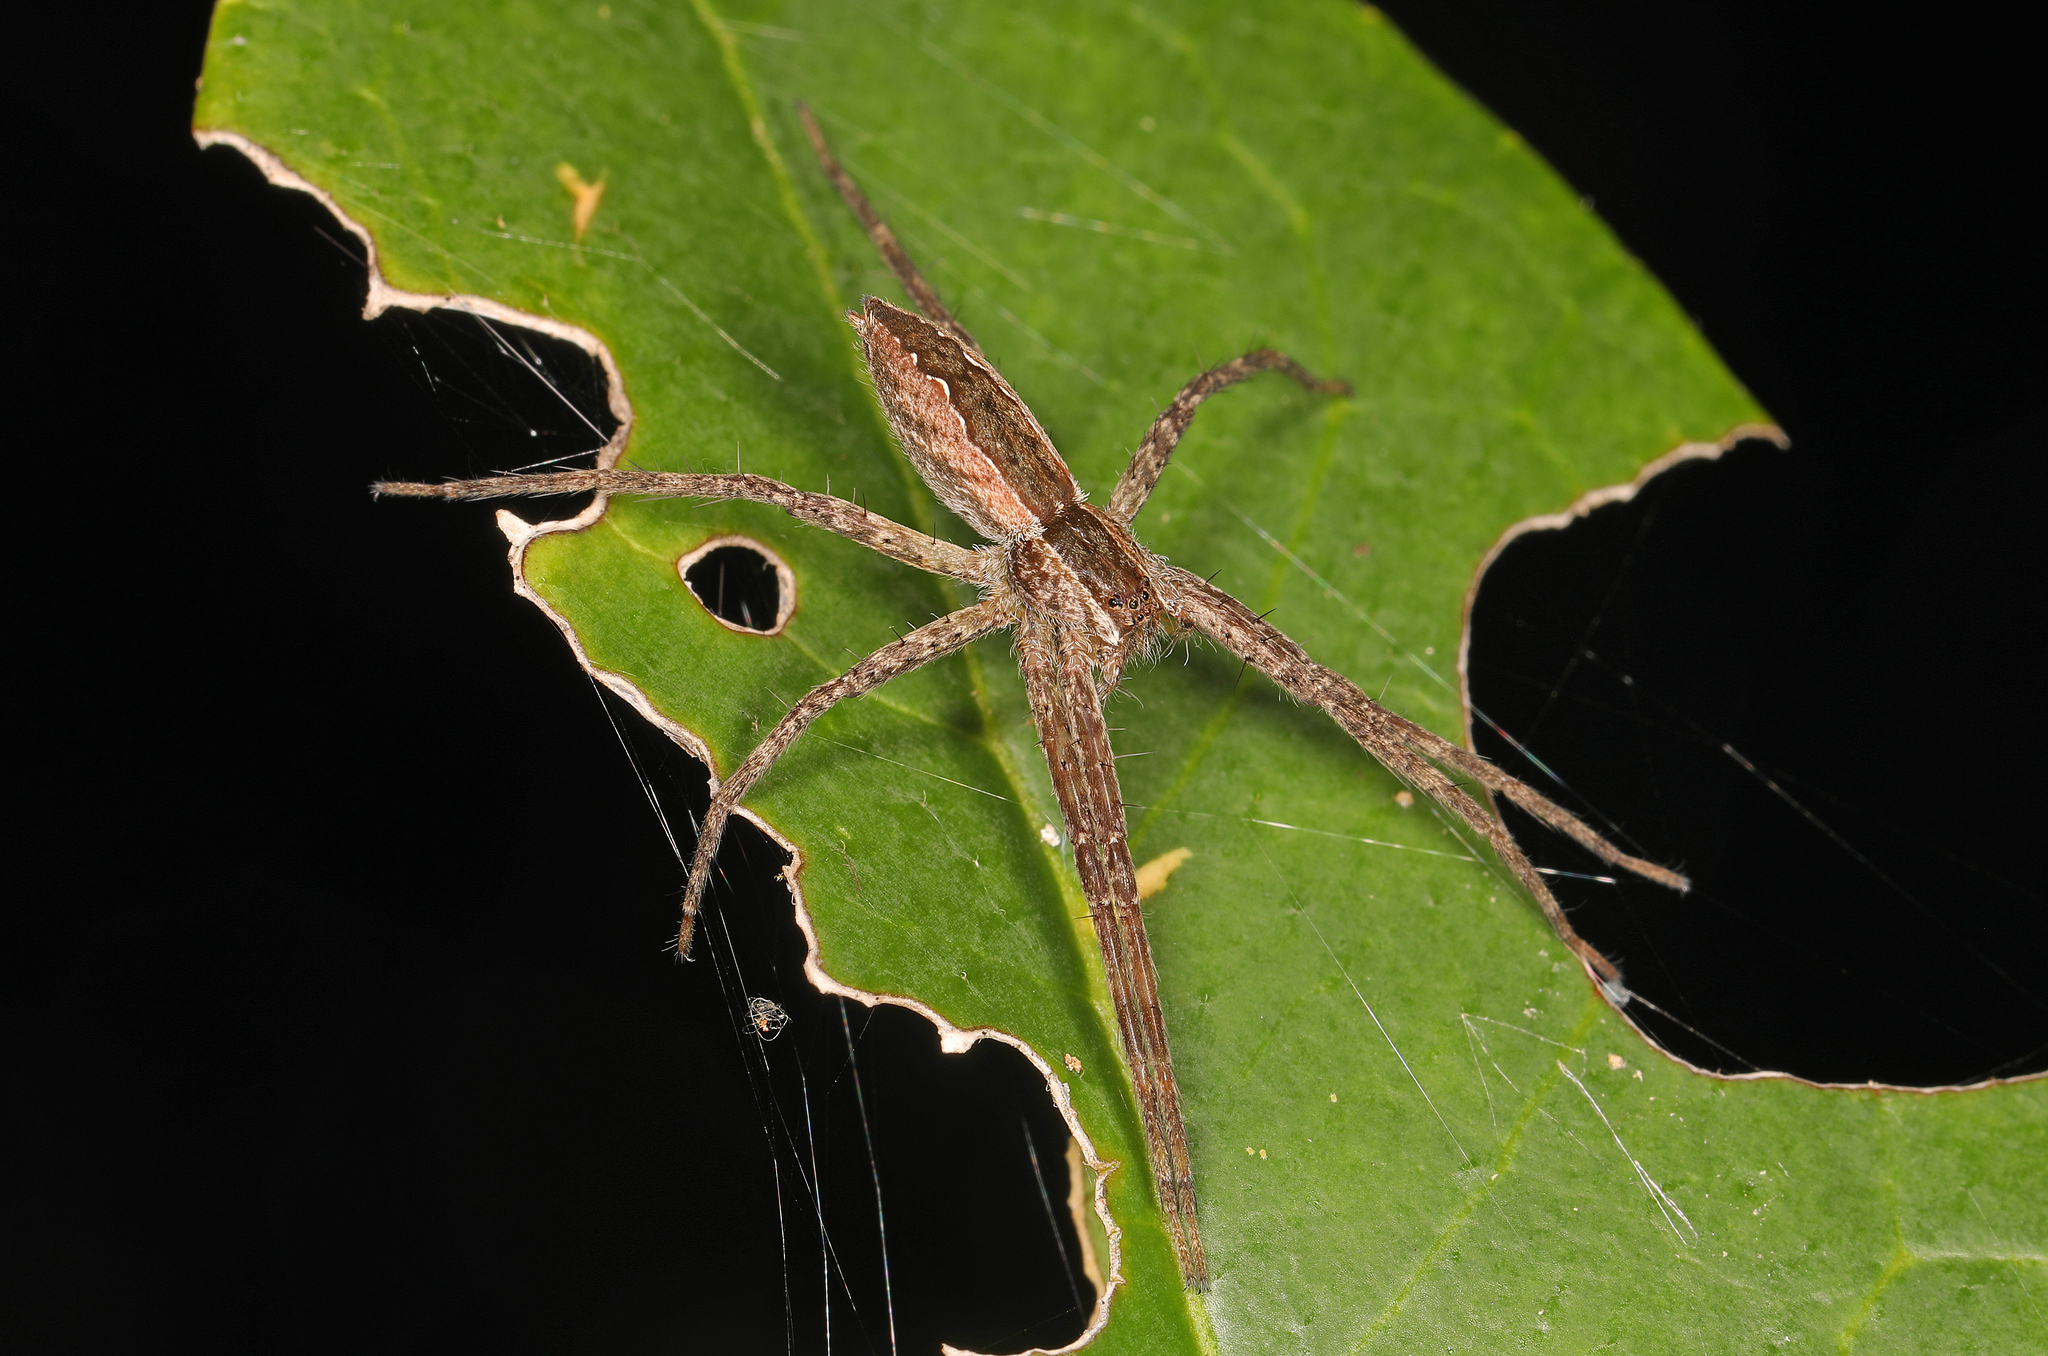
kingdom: Animalia
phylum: Arthropoda
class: Arachnida
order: Araneae
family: Pisauridae
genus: Pisaurina
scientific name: Pisaurina mira
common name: American nursery web spider
